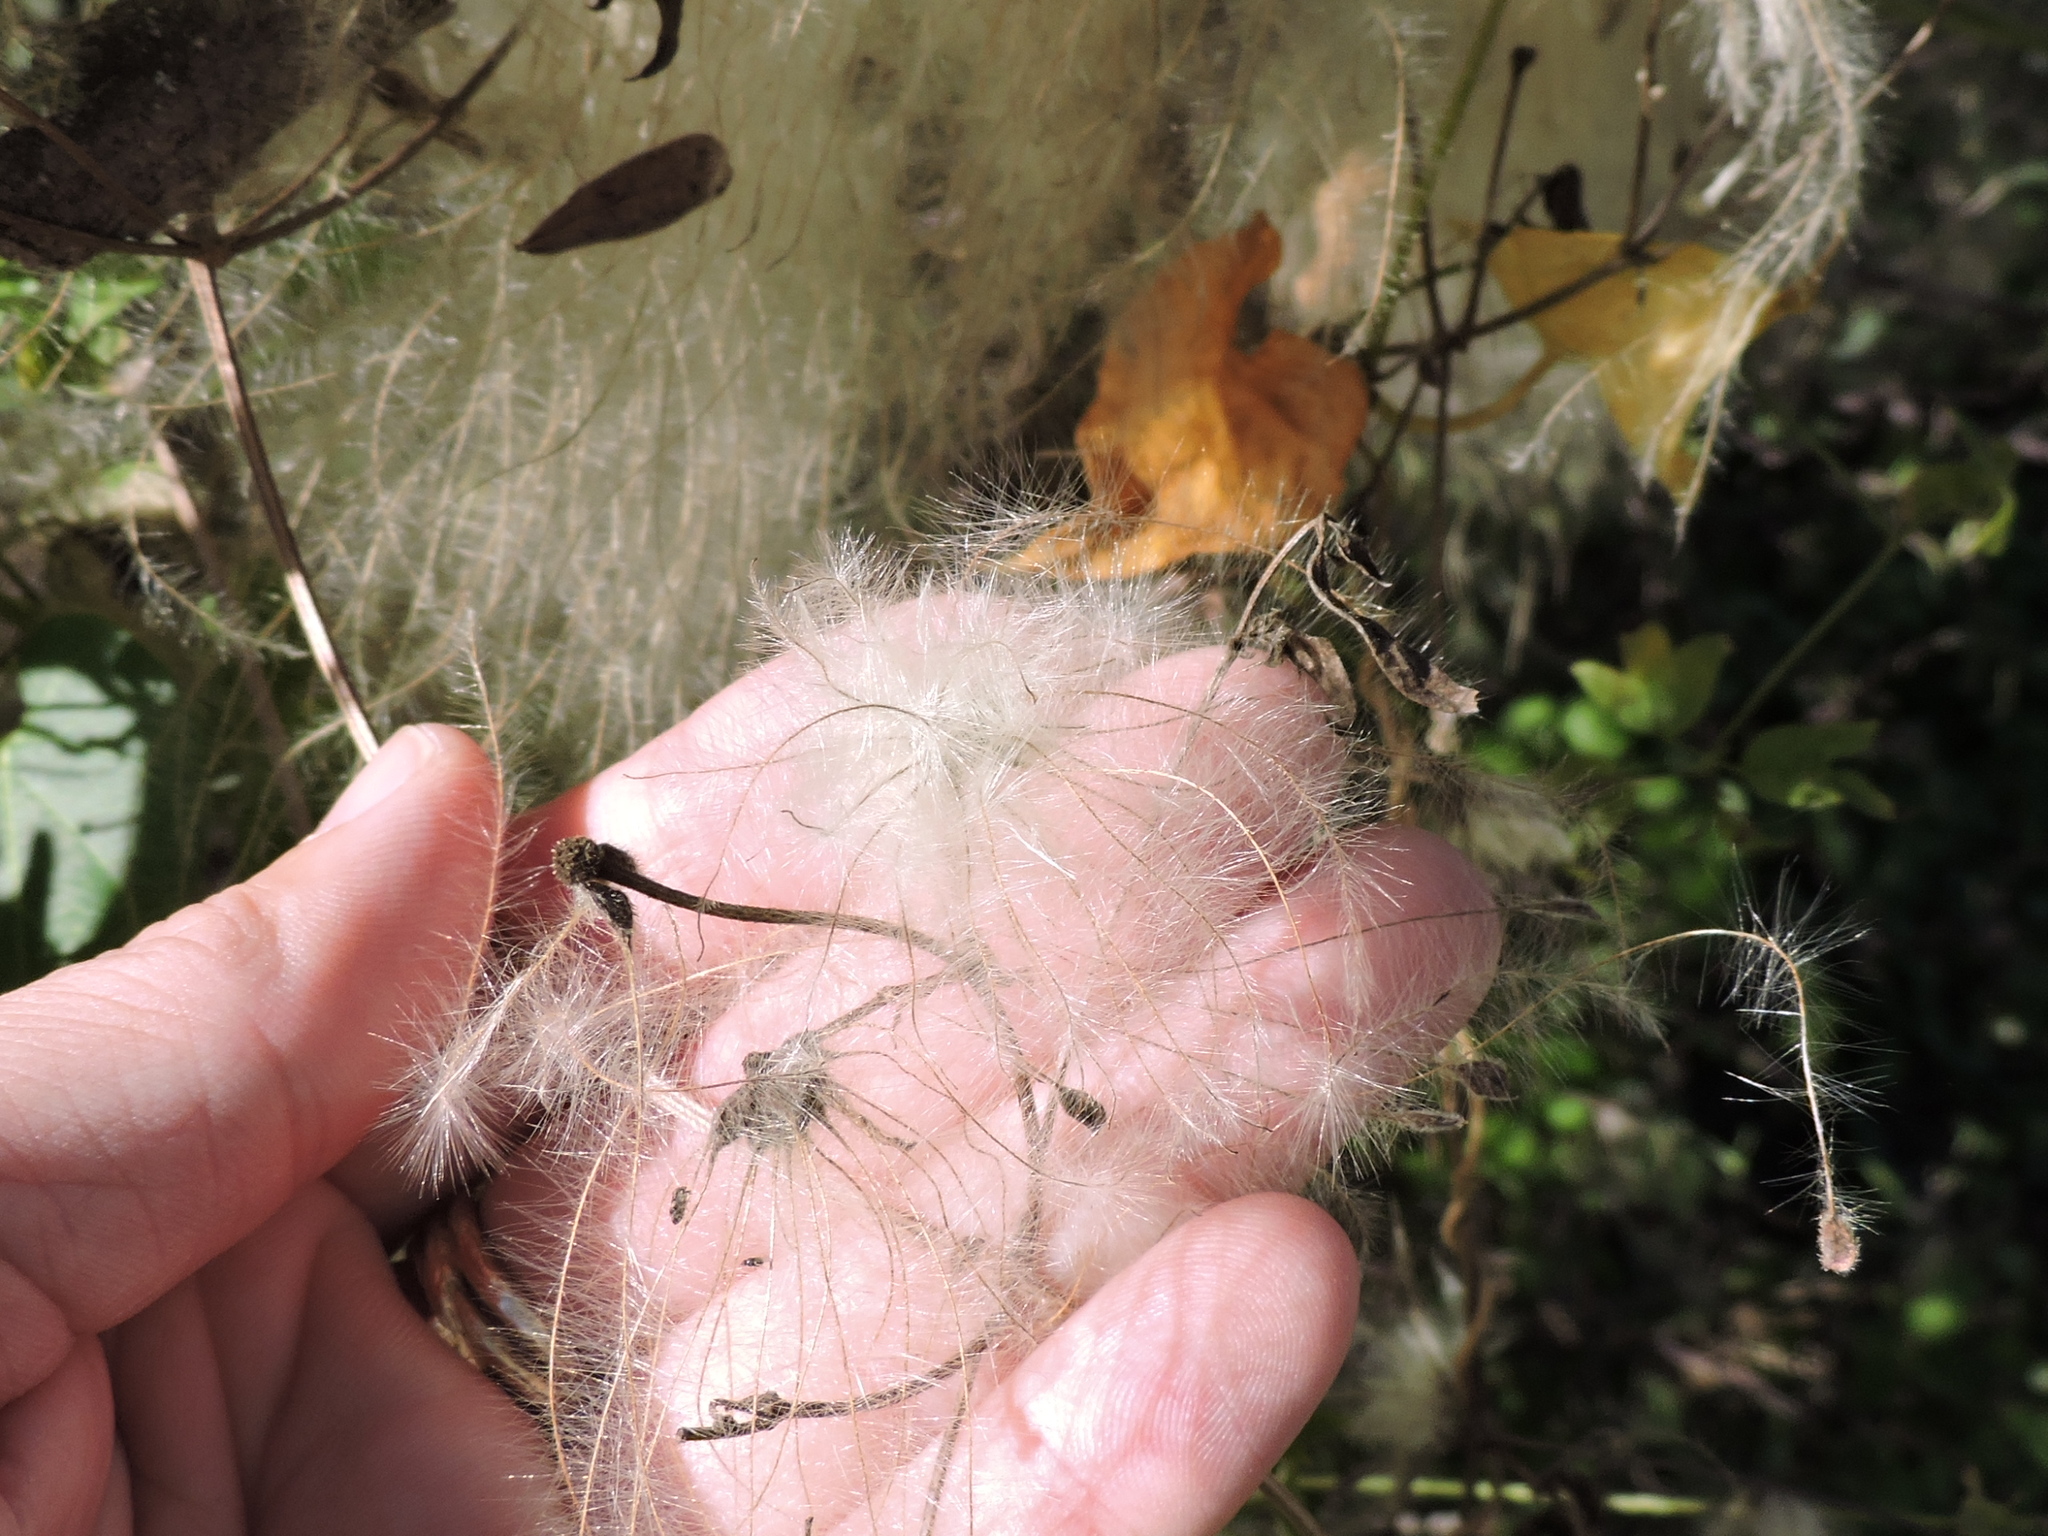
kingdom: Plantae
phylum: Tracheophyta
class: Magnoliopsida
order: Ranunculales
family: Ranunculaceae
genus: Clematis
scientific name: Clematis drummondii
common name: Texas virgin's bower
